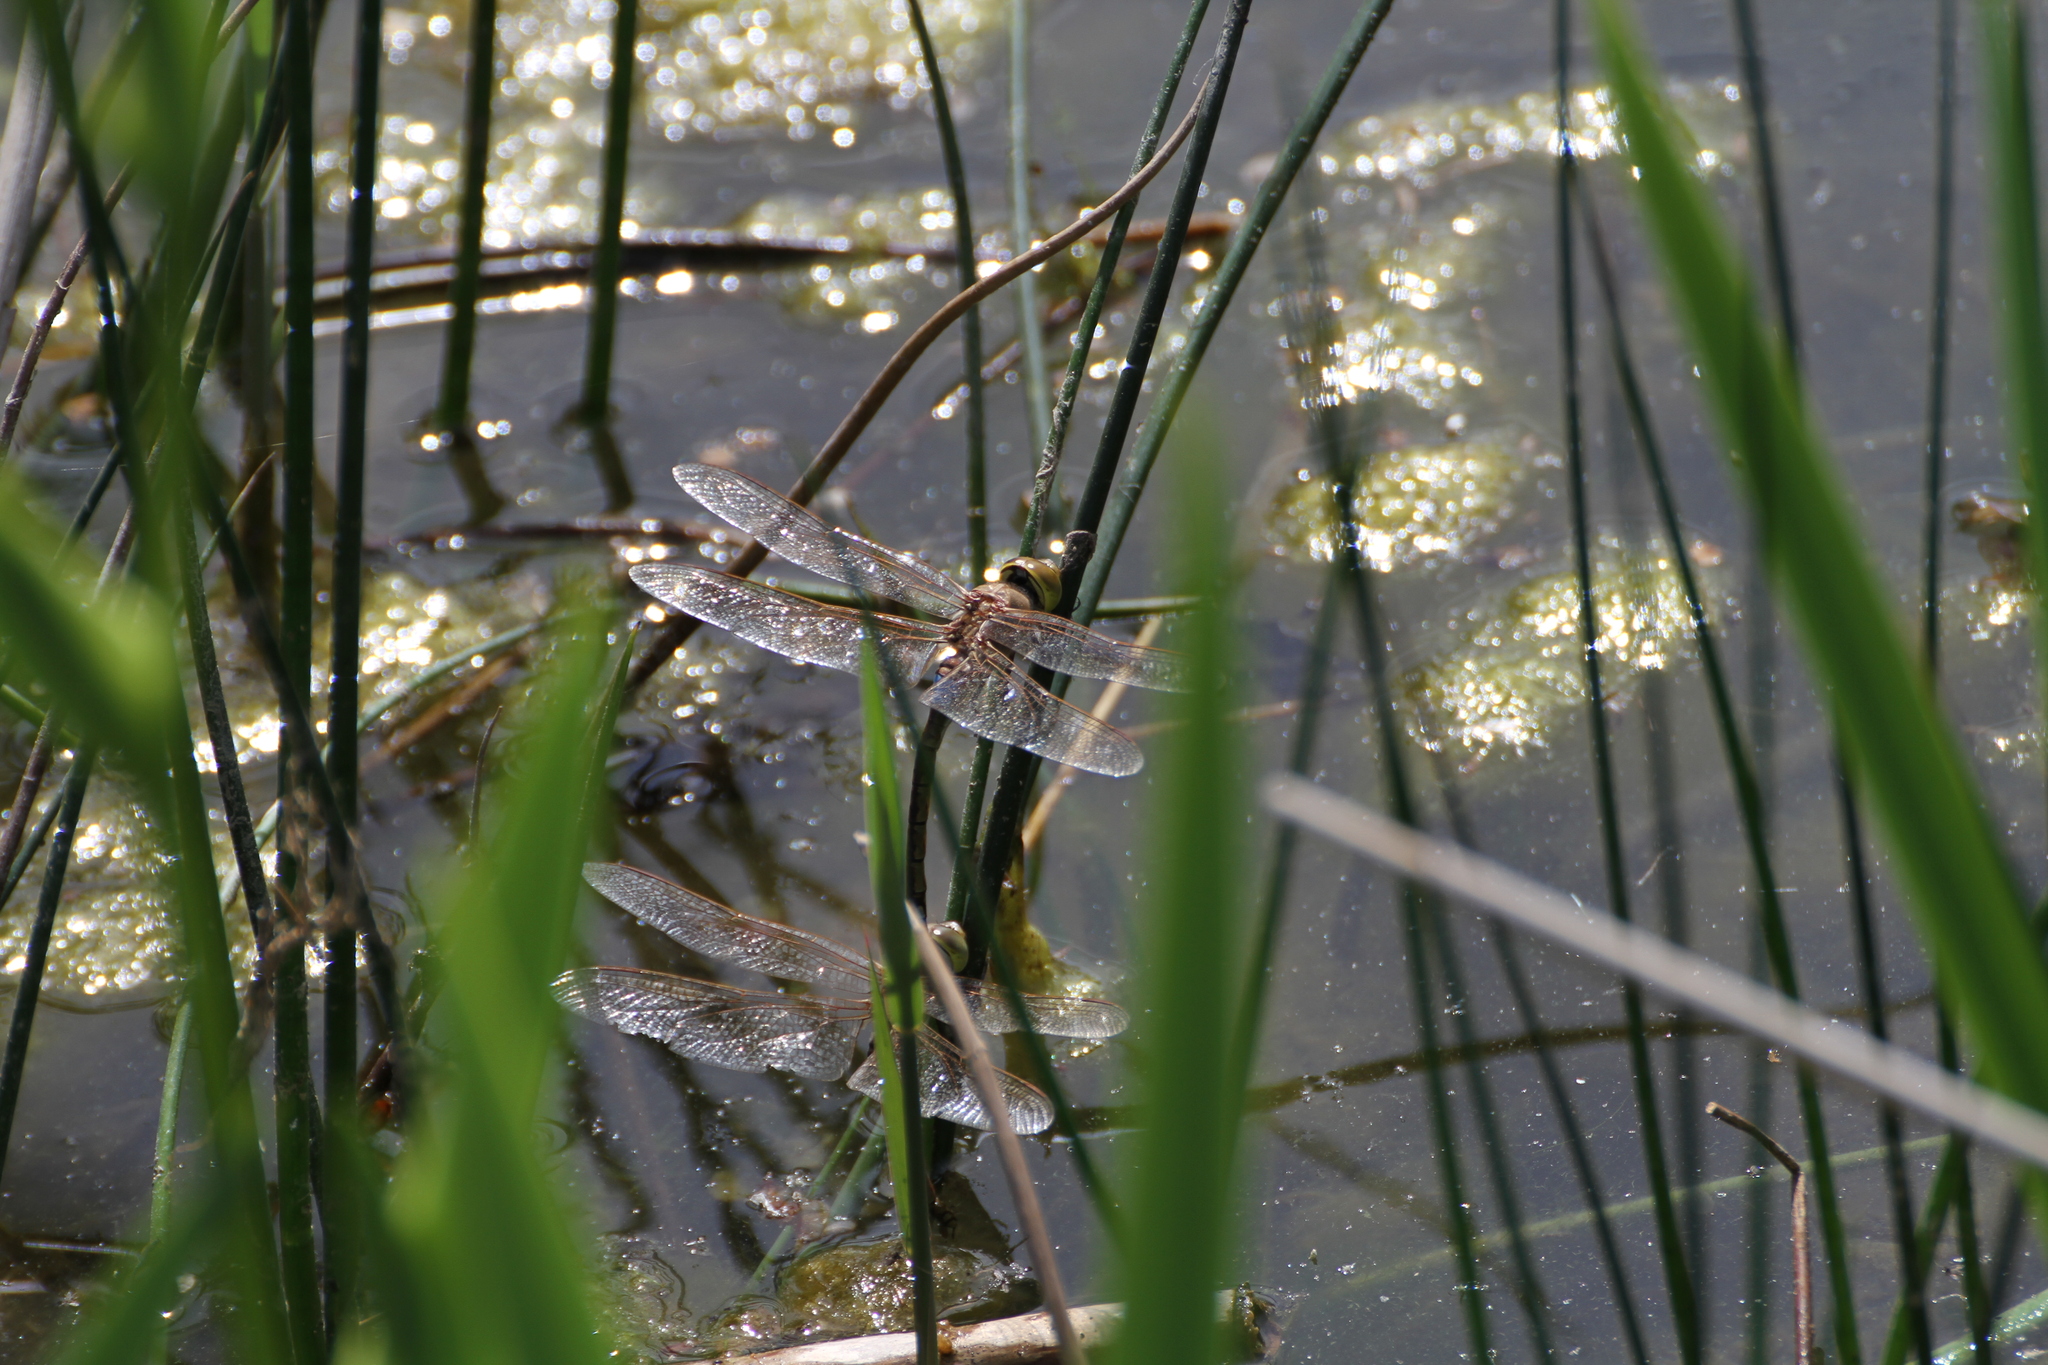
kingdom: Animalia
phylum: Arthropoda
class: Insecta
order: Odonata
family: Aeshnidae
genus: Anax
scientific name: Anax ephippiger
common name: Vagrant emperor
